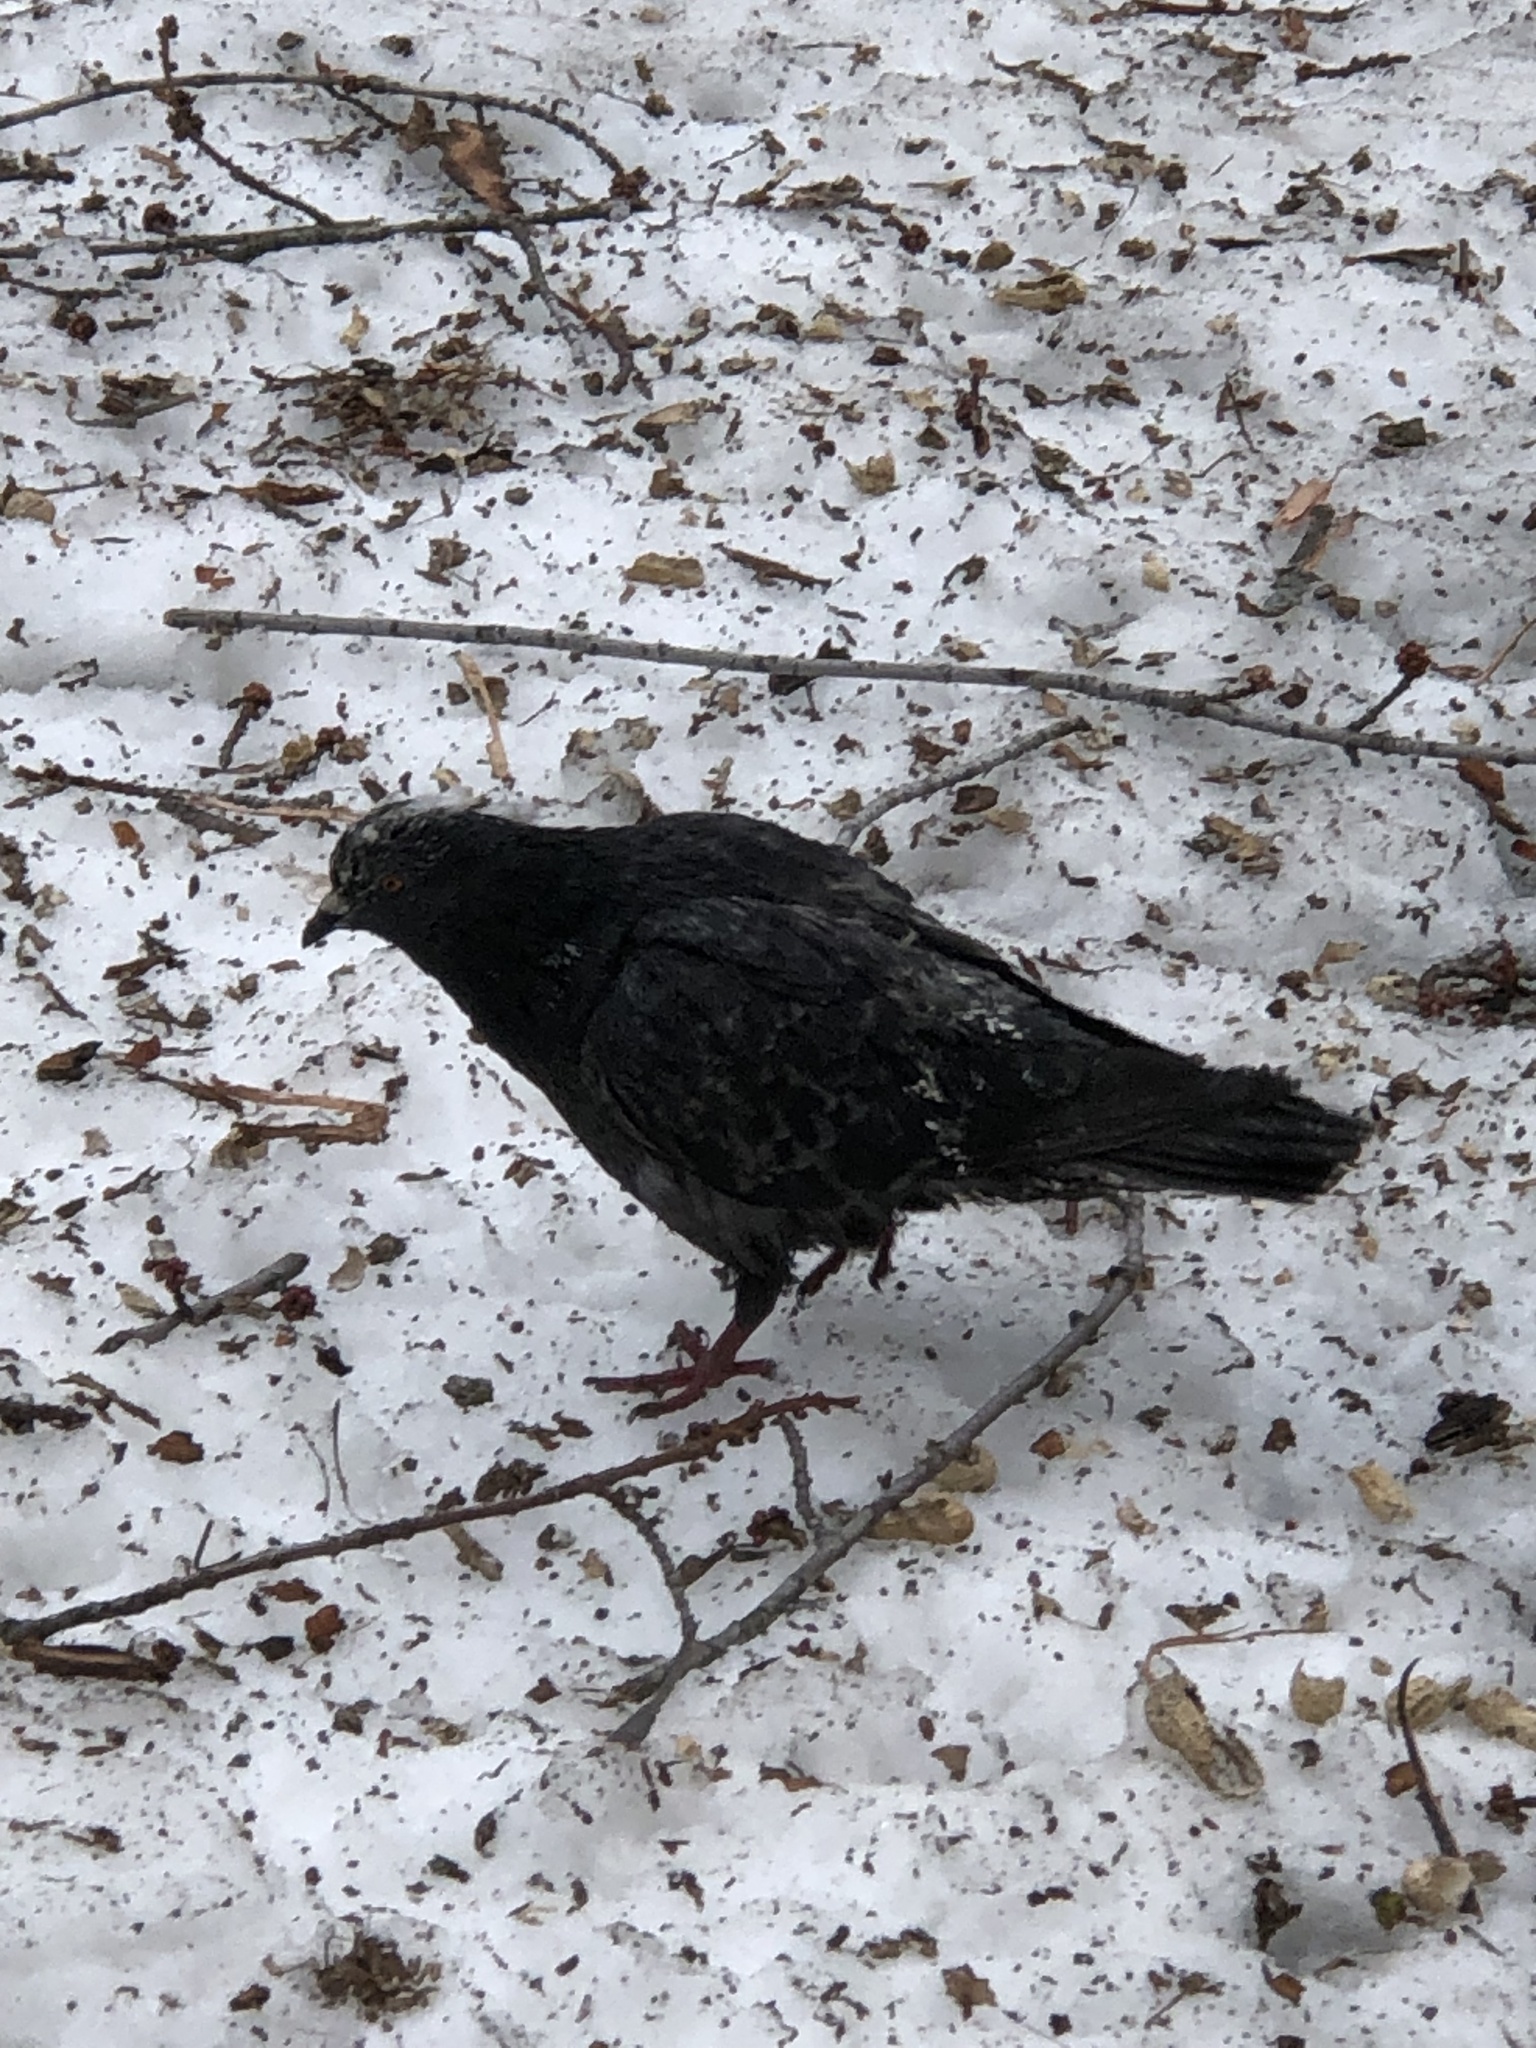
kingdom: Animalia
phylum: Chordata
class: Aves
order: Columbiformes
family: Columbidae
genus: Columba
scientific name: Columba livia
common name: Rock pigeon
